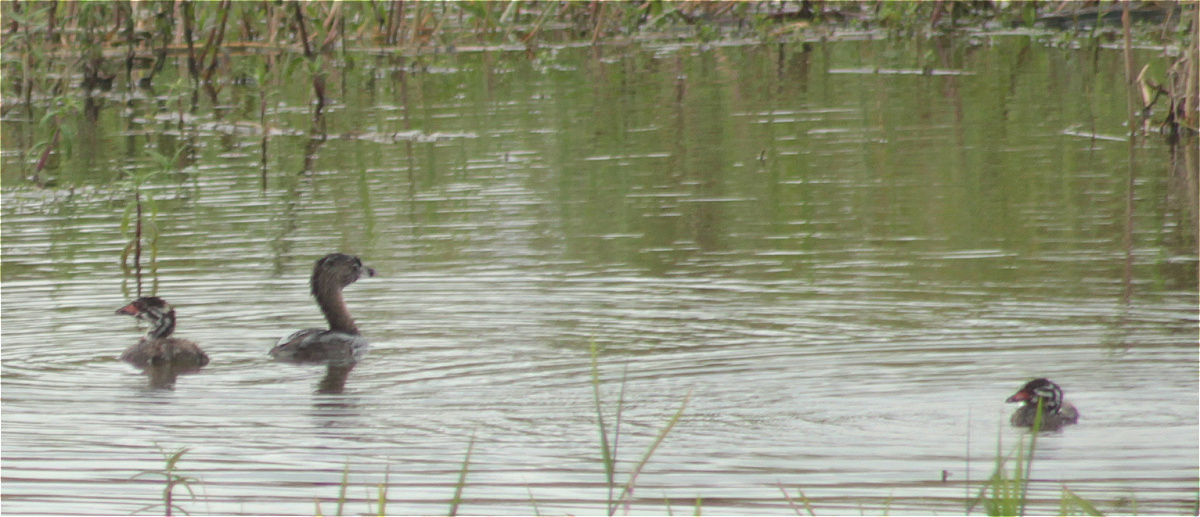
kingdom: Animalia
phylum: Chordata
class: Aves
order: Podicipediformes
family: Podicipedidae
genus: Podilymbus
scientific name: Podilymbus podiceps
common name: Pied-billed grebe
